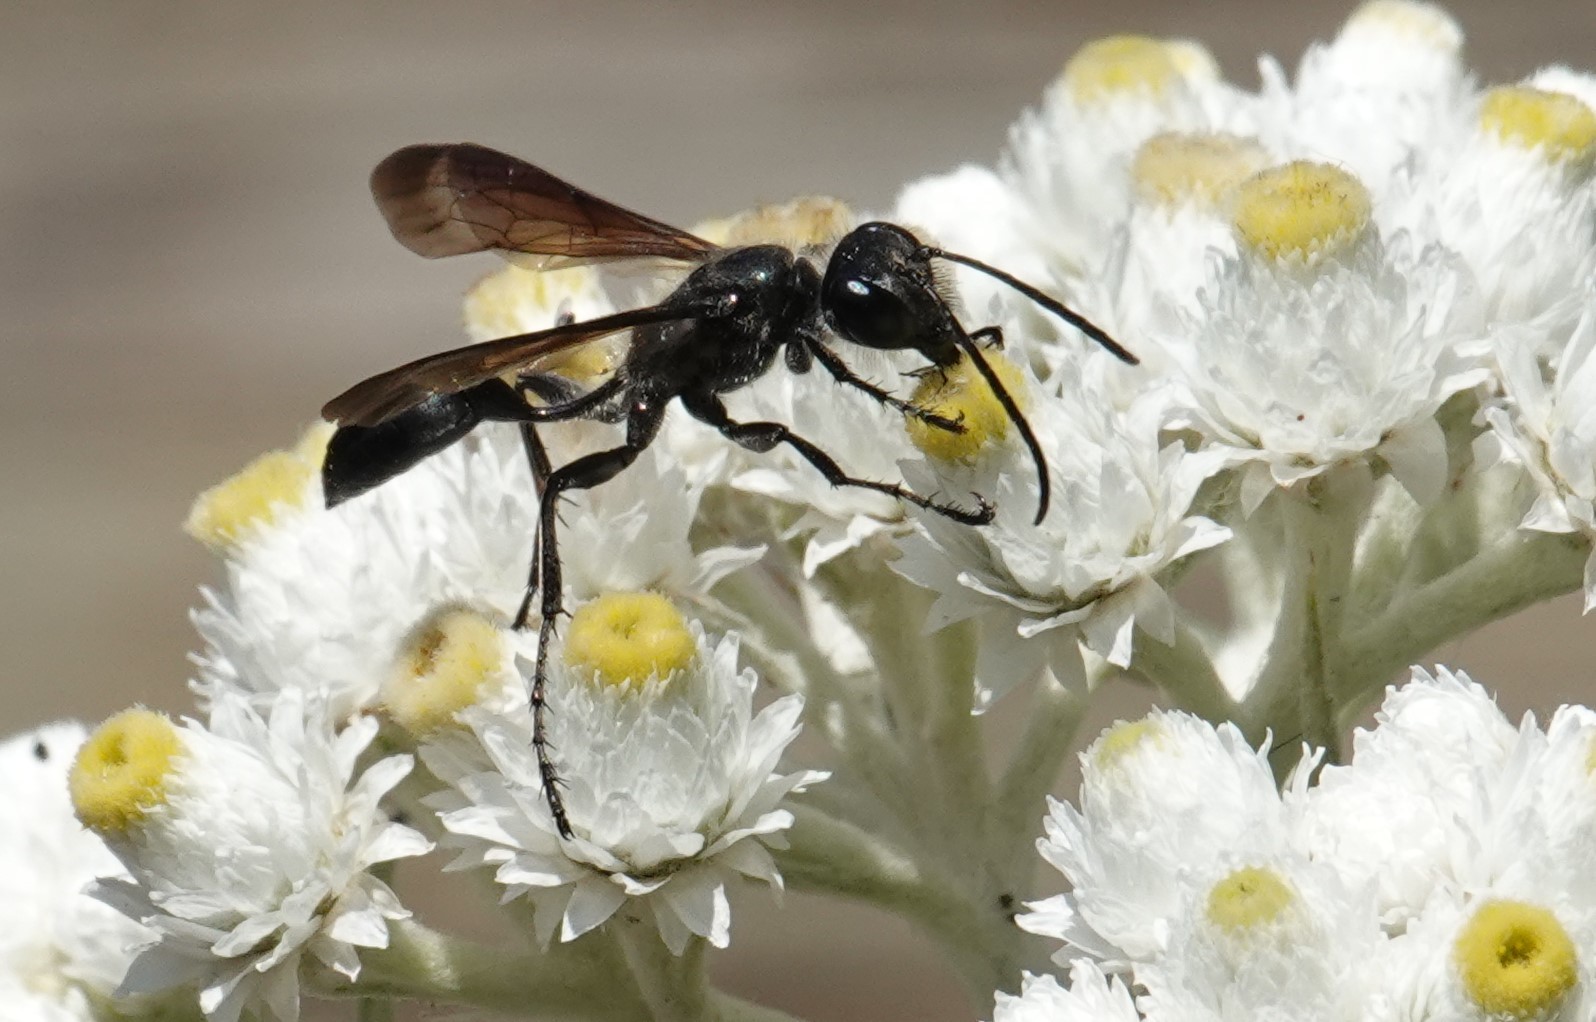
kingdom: Animalia
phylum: Arthropoda
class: Insecta
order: Hymenoptera
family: Sphecidae
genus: Isodontia
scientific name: Isodontia mexicana
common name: Mud dauber
